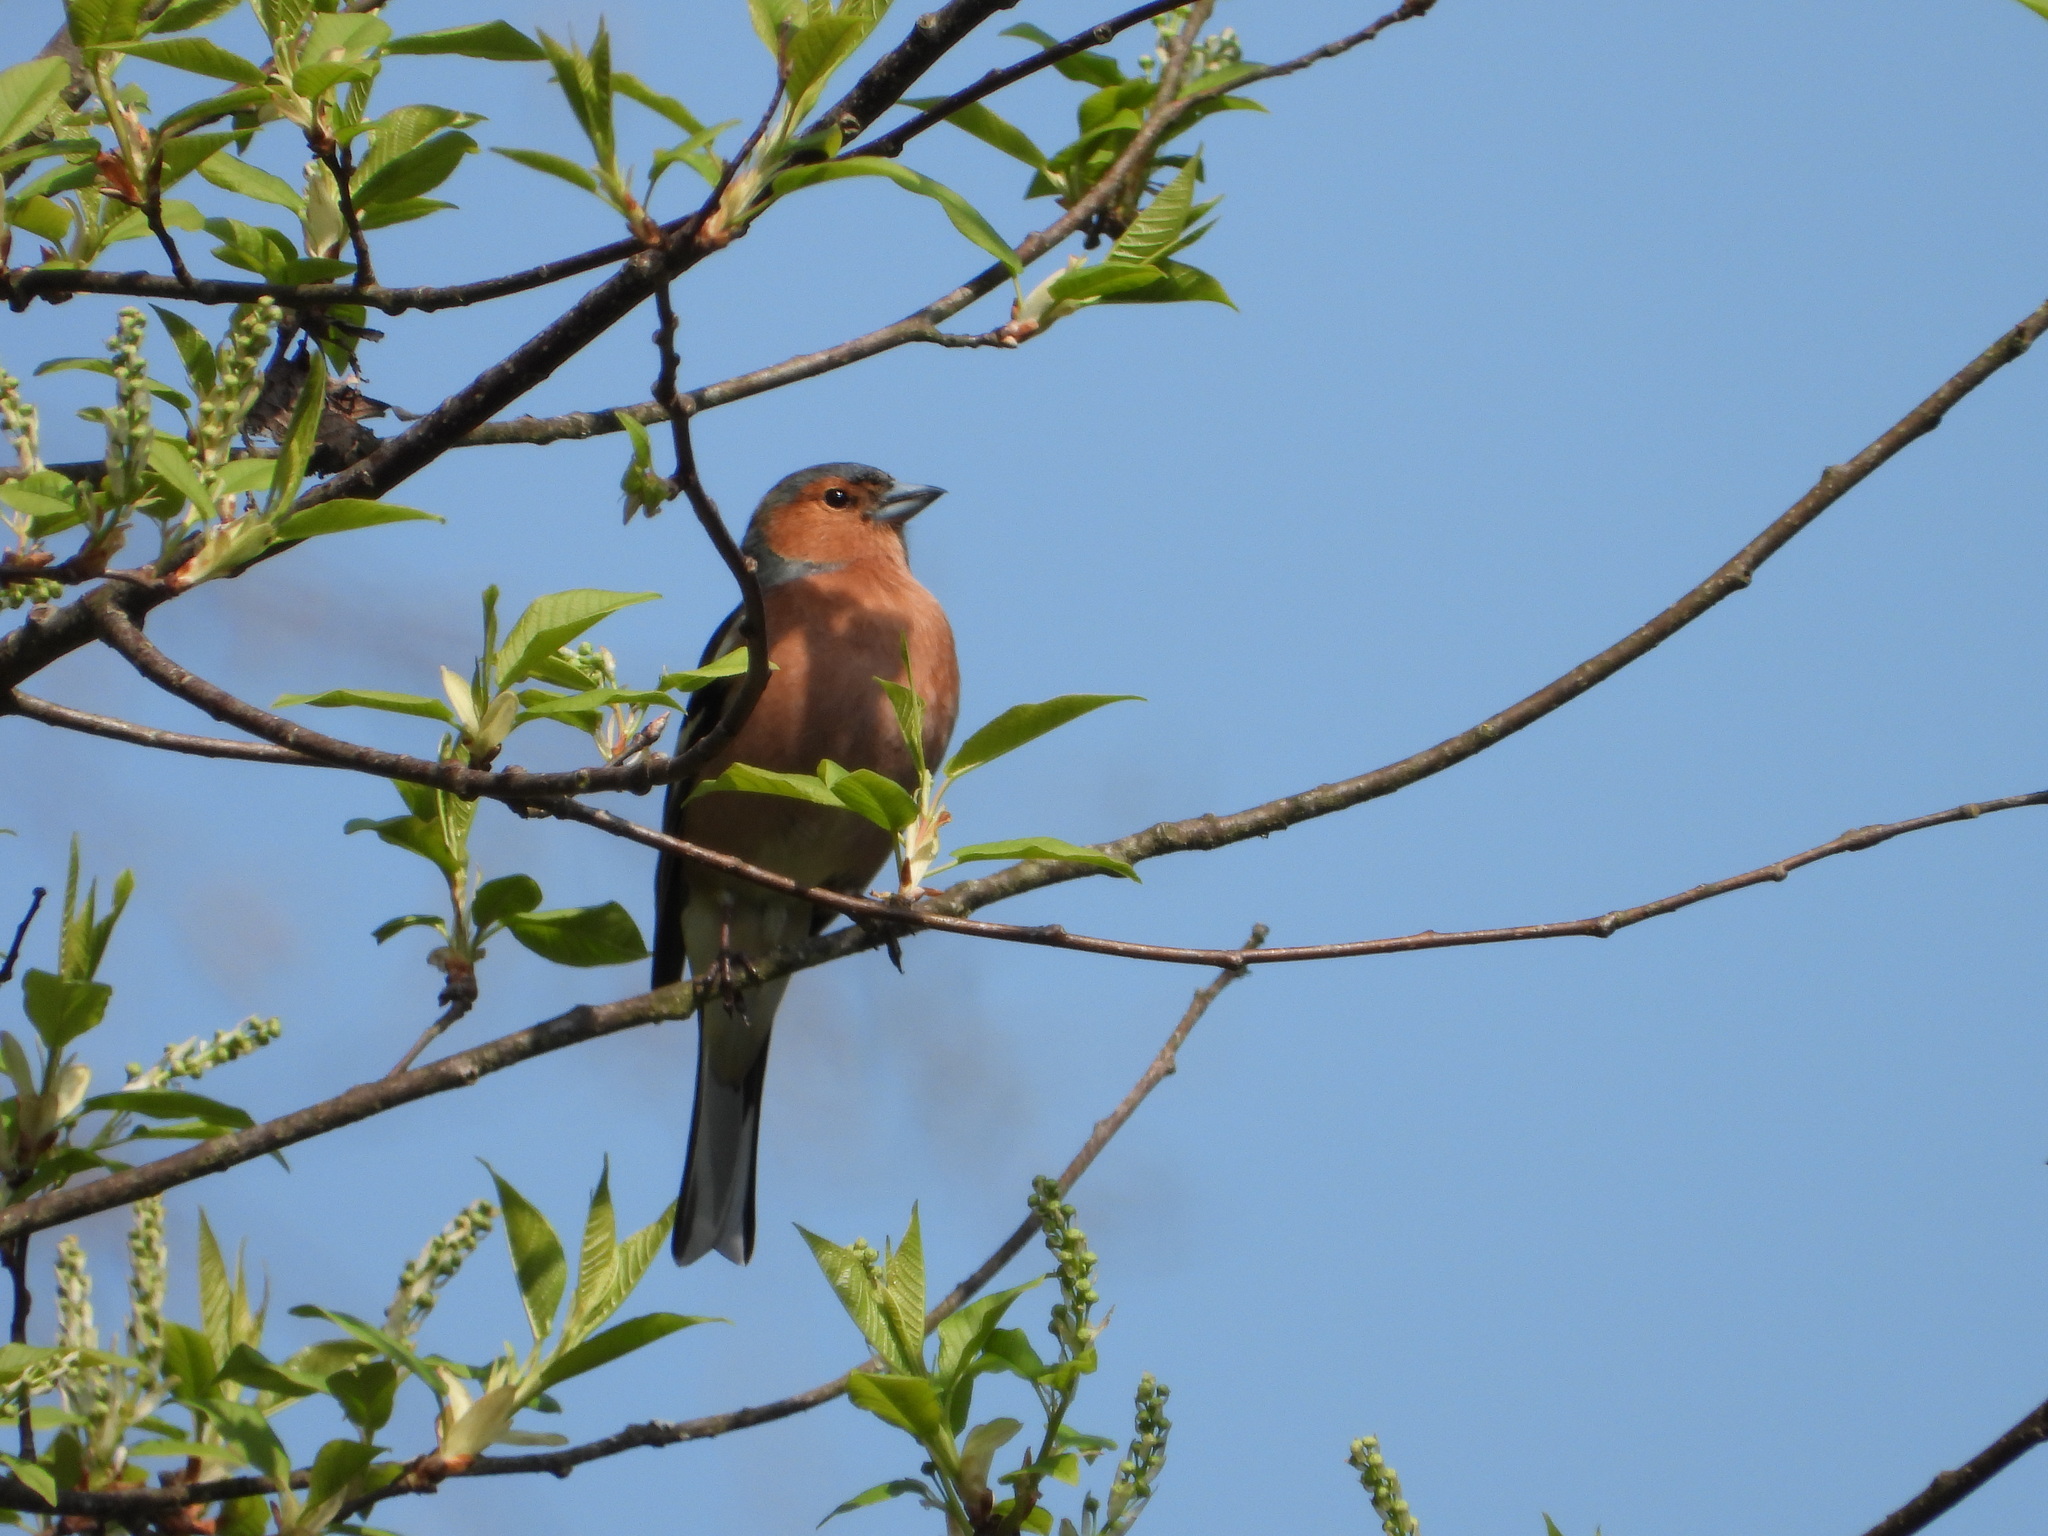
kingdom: Animalia
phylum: Chordata
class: Aves
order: Passeriformes
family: Fringillidae
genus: Fringilla
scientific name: Fringilla coelebs
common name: Common chaffinch
